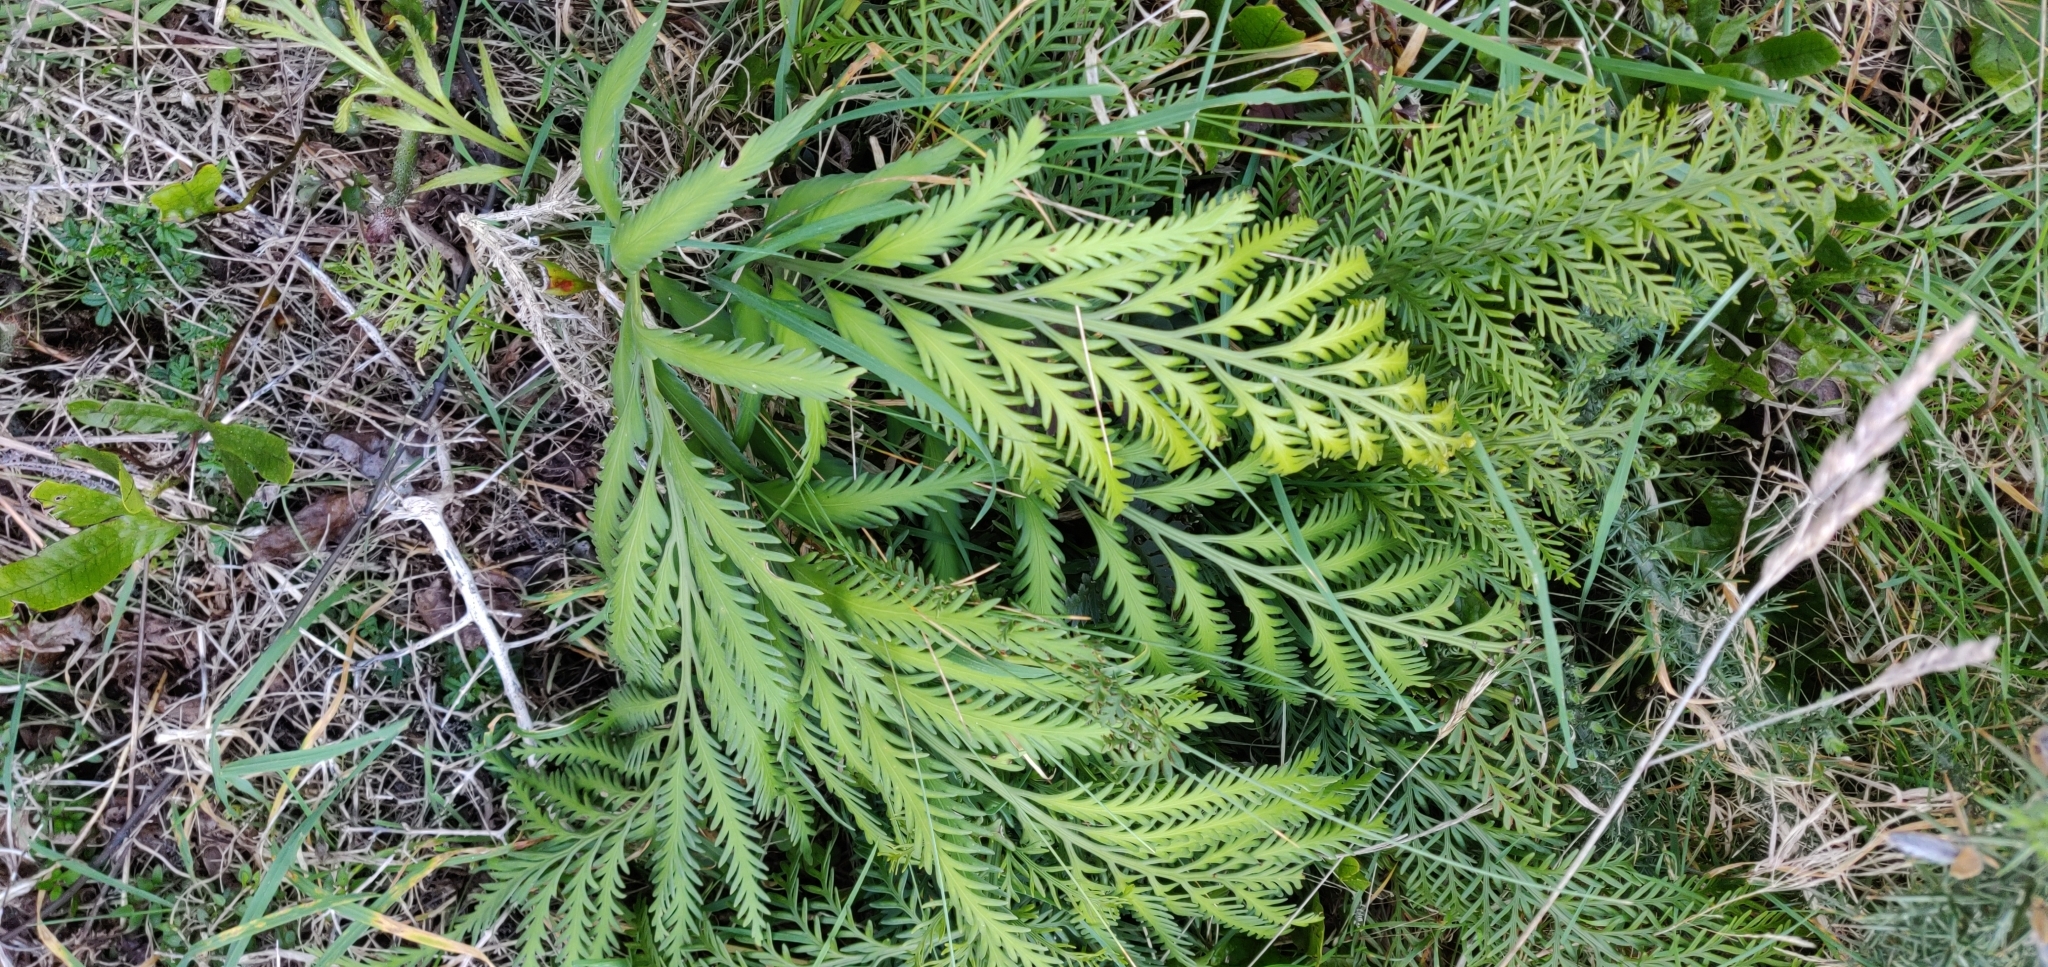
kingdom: Plantae
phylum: Tracheophyta
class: Polypodiopsida
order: Polypodiales
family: Aspleniaceae
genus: Asplenium
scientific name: Asplenium flaccidum
